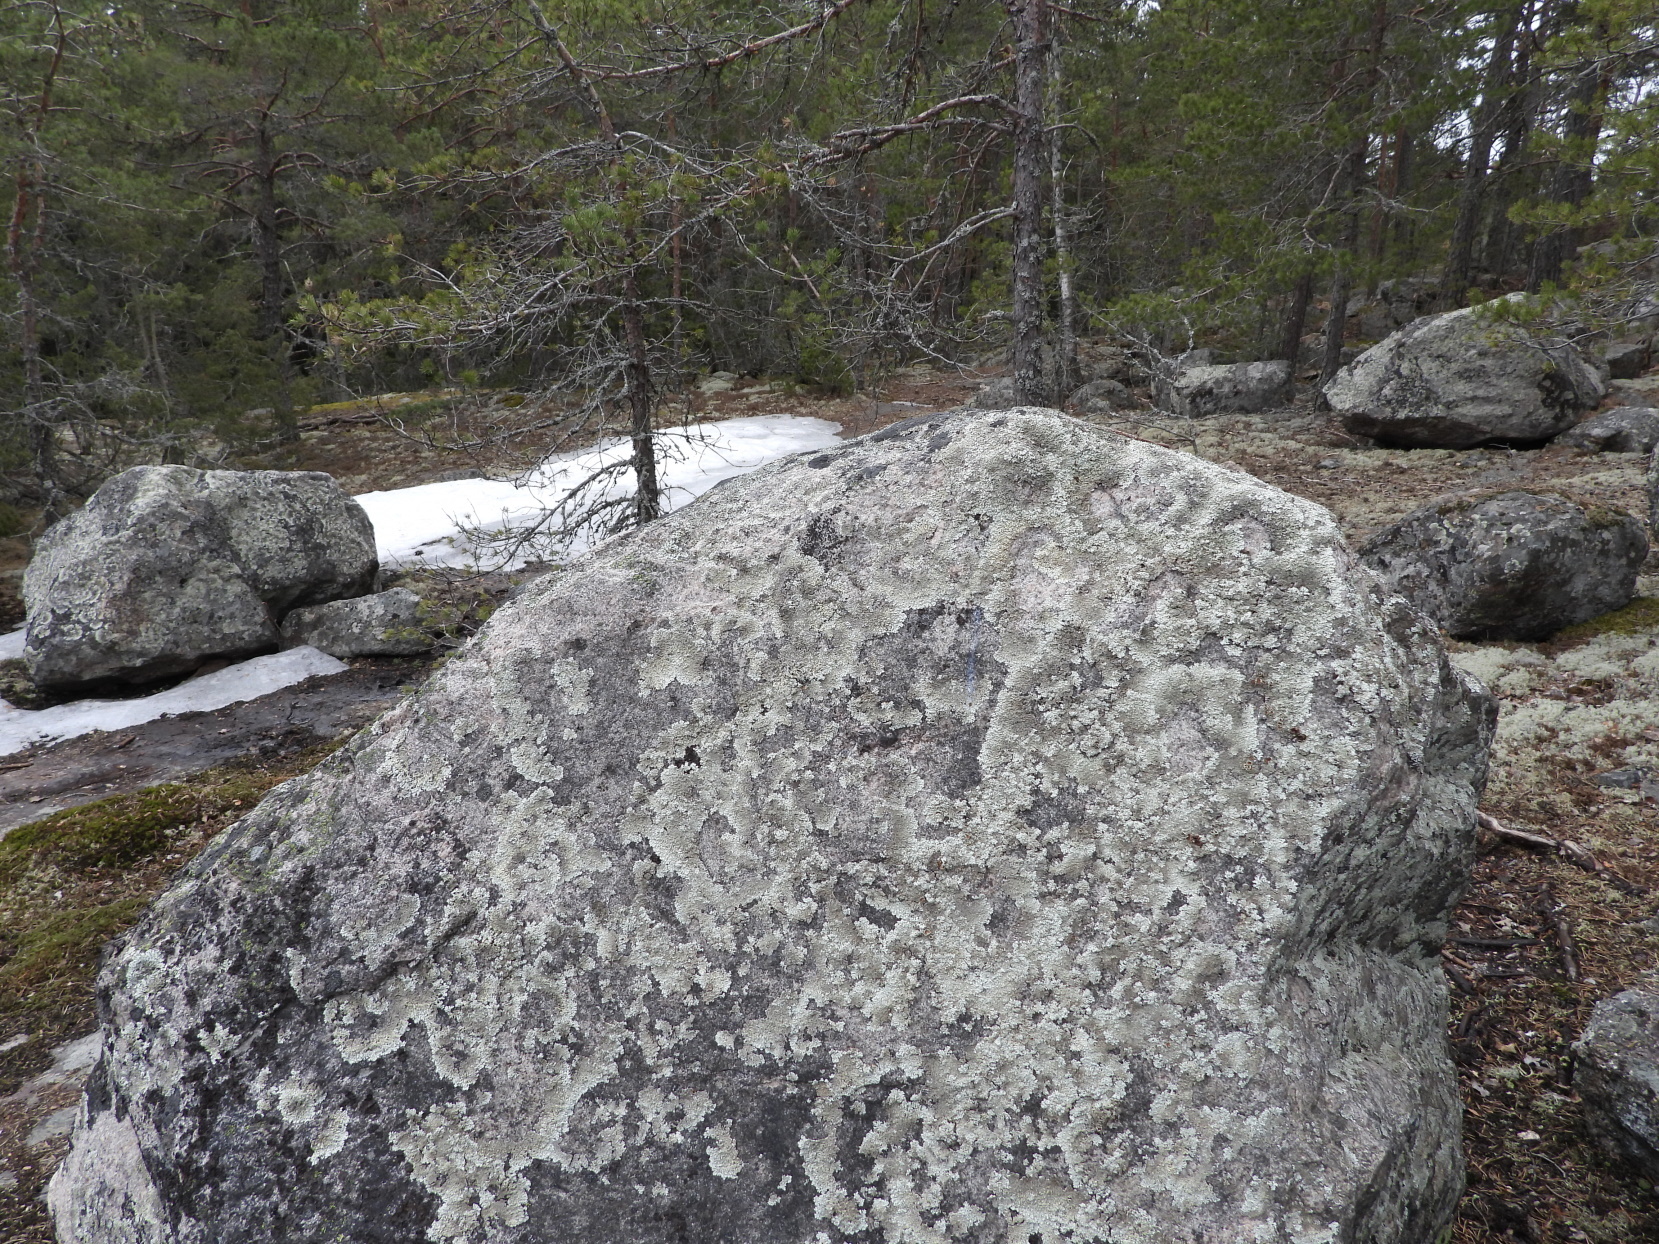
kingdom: Fungi
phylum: Ascomycota
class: Lecanoromycetes
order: Lecanorales
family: Parmeliaceae
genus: Arctoparmelia
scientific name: Arctoparmelia centrifuga
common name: Concentric ring lichen
